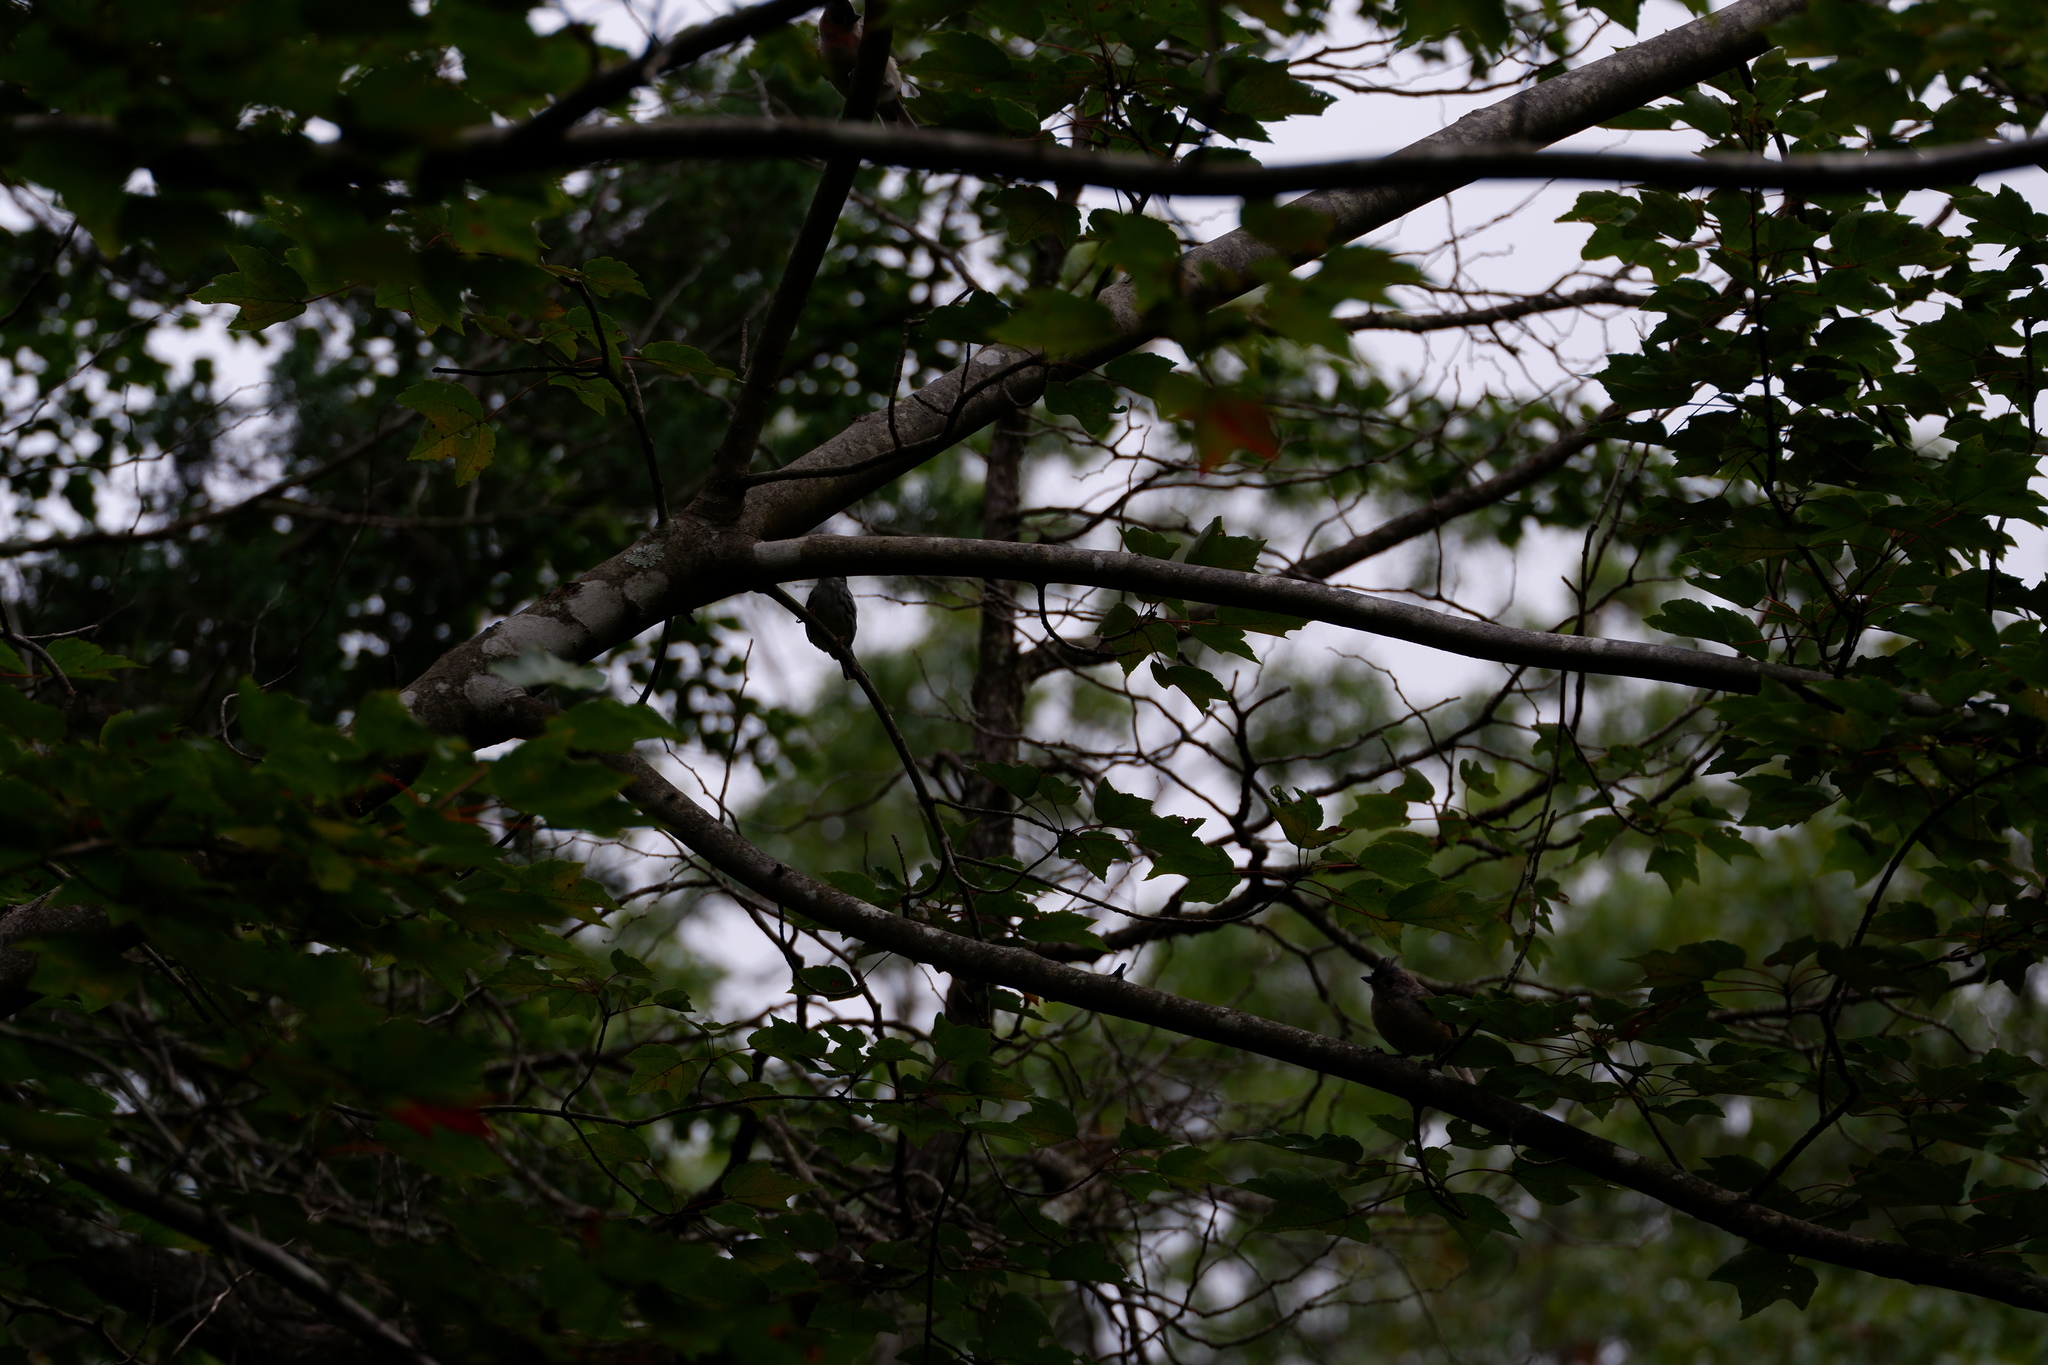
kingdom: Animalia
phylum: Chordata
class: Aves
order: Passeriformes
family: Paridae
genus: Baeolophus
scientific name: Baeolophus bicolor
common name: Tufted titmouse
